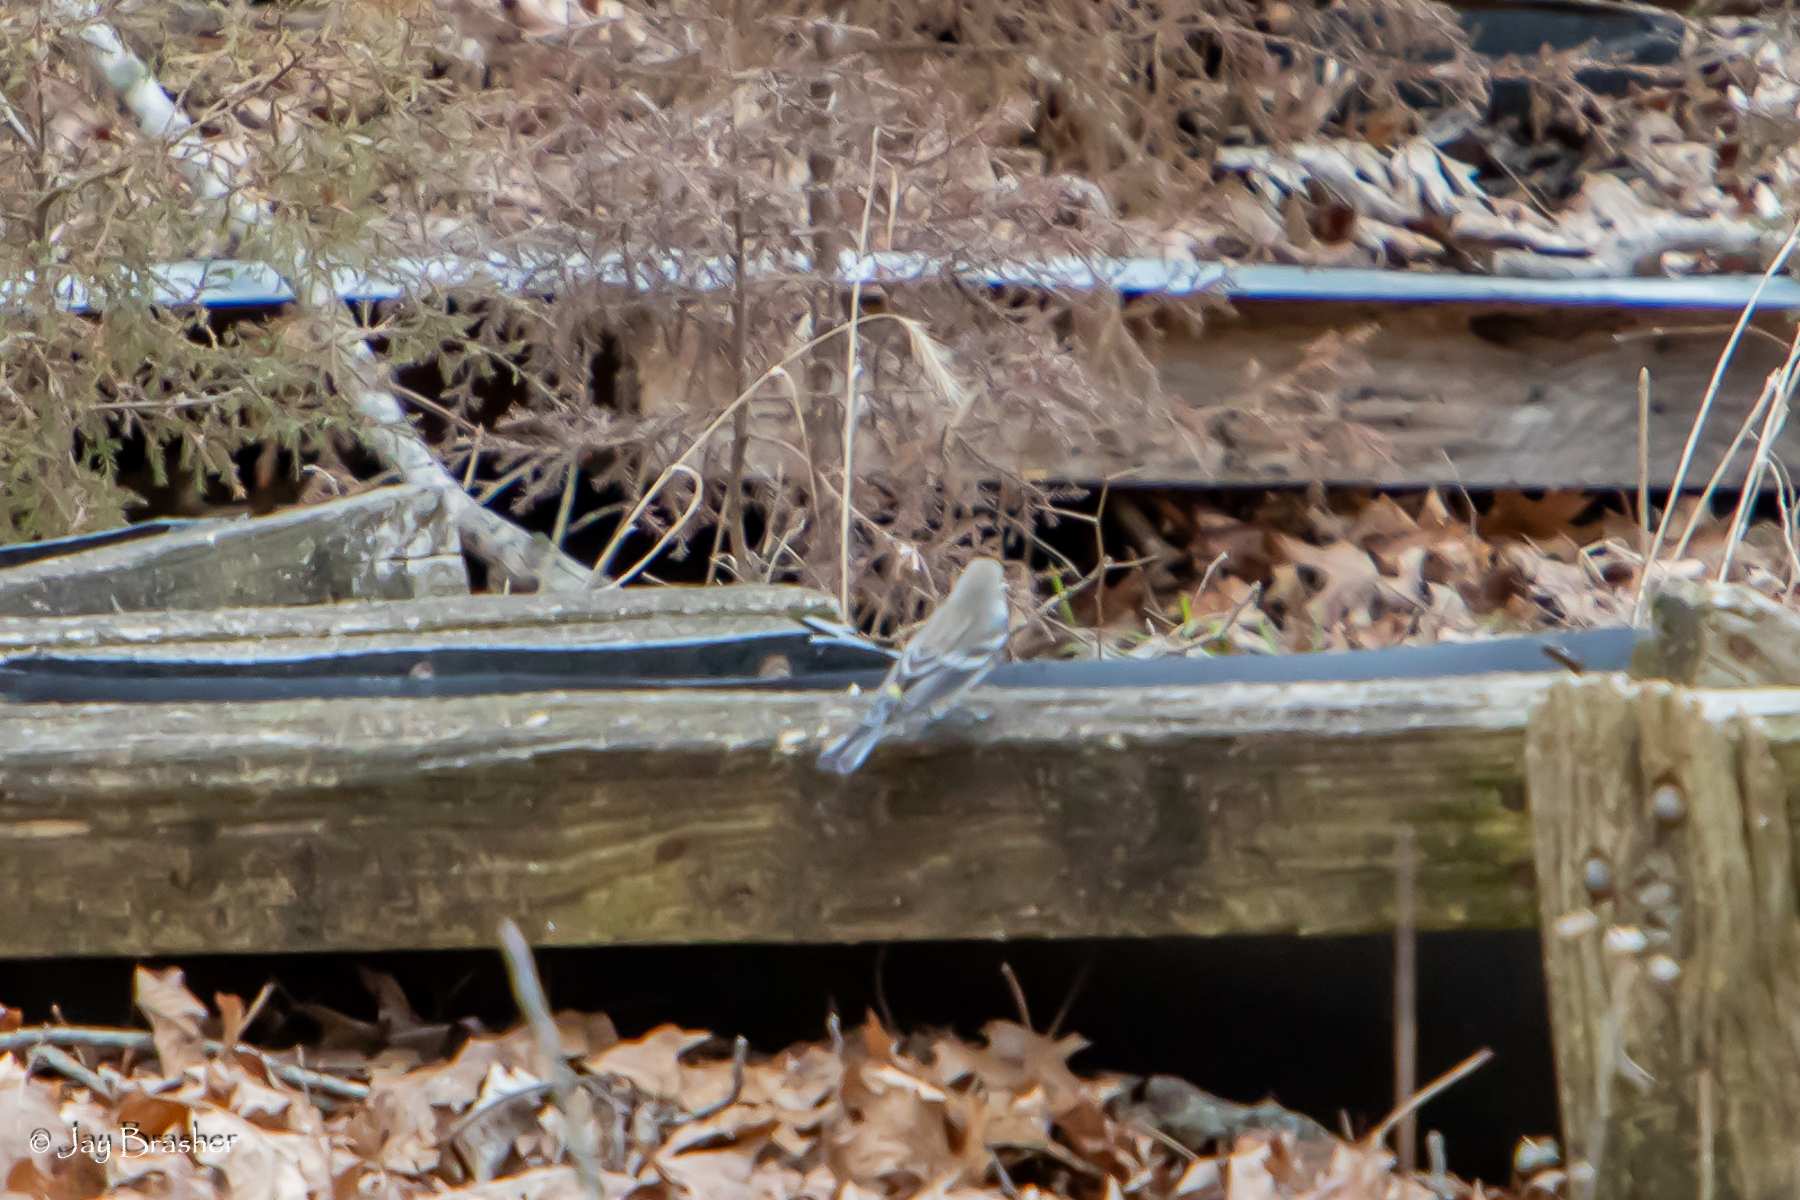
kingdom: Animalia
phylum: Chordata
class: Aves
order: Passeriformes
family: Parulidae
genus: Setophaga
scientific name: Setophaga coronata
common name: Myrtle warbler
